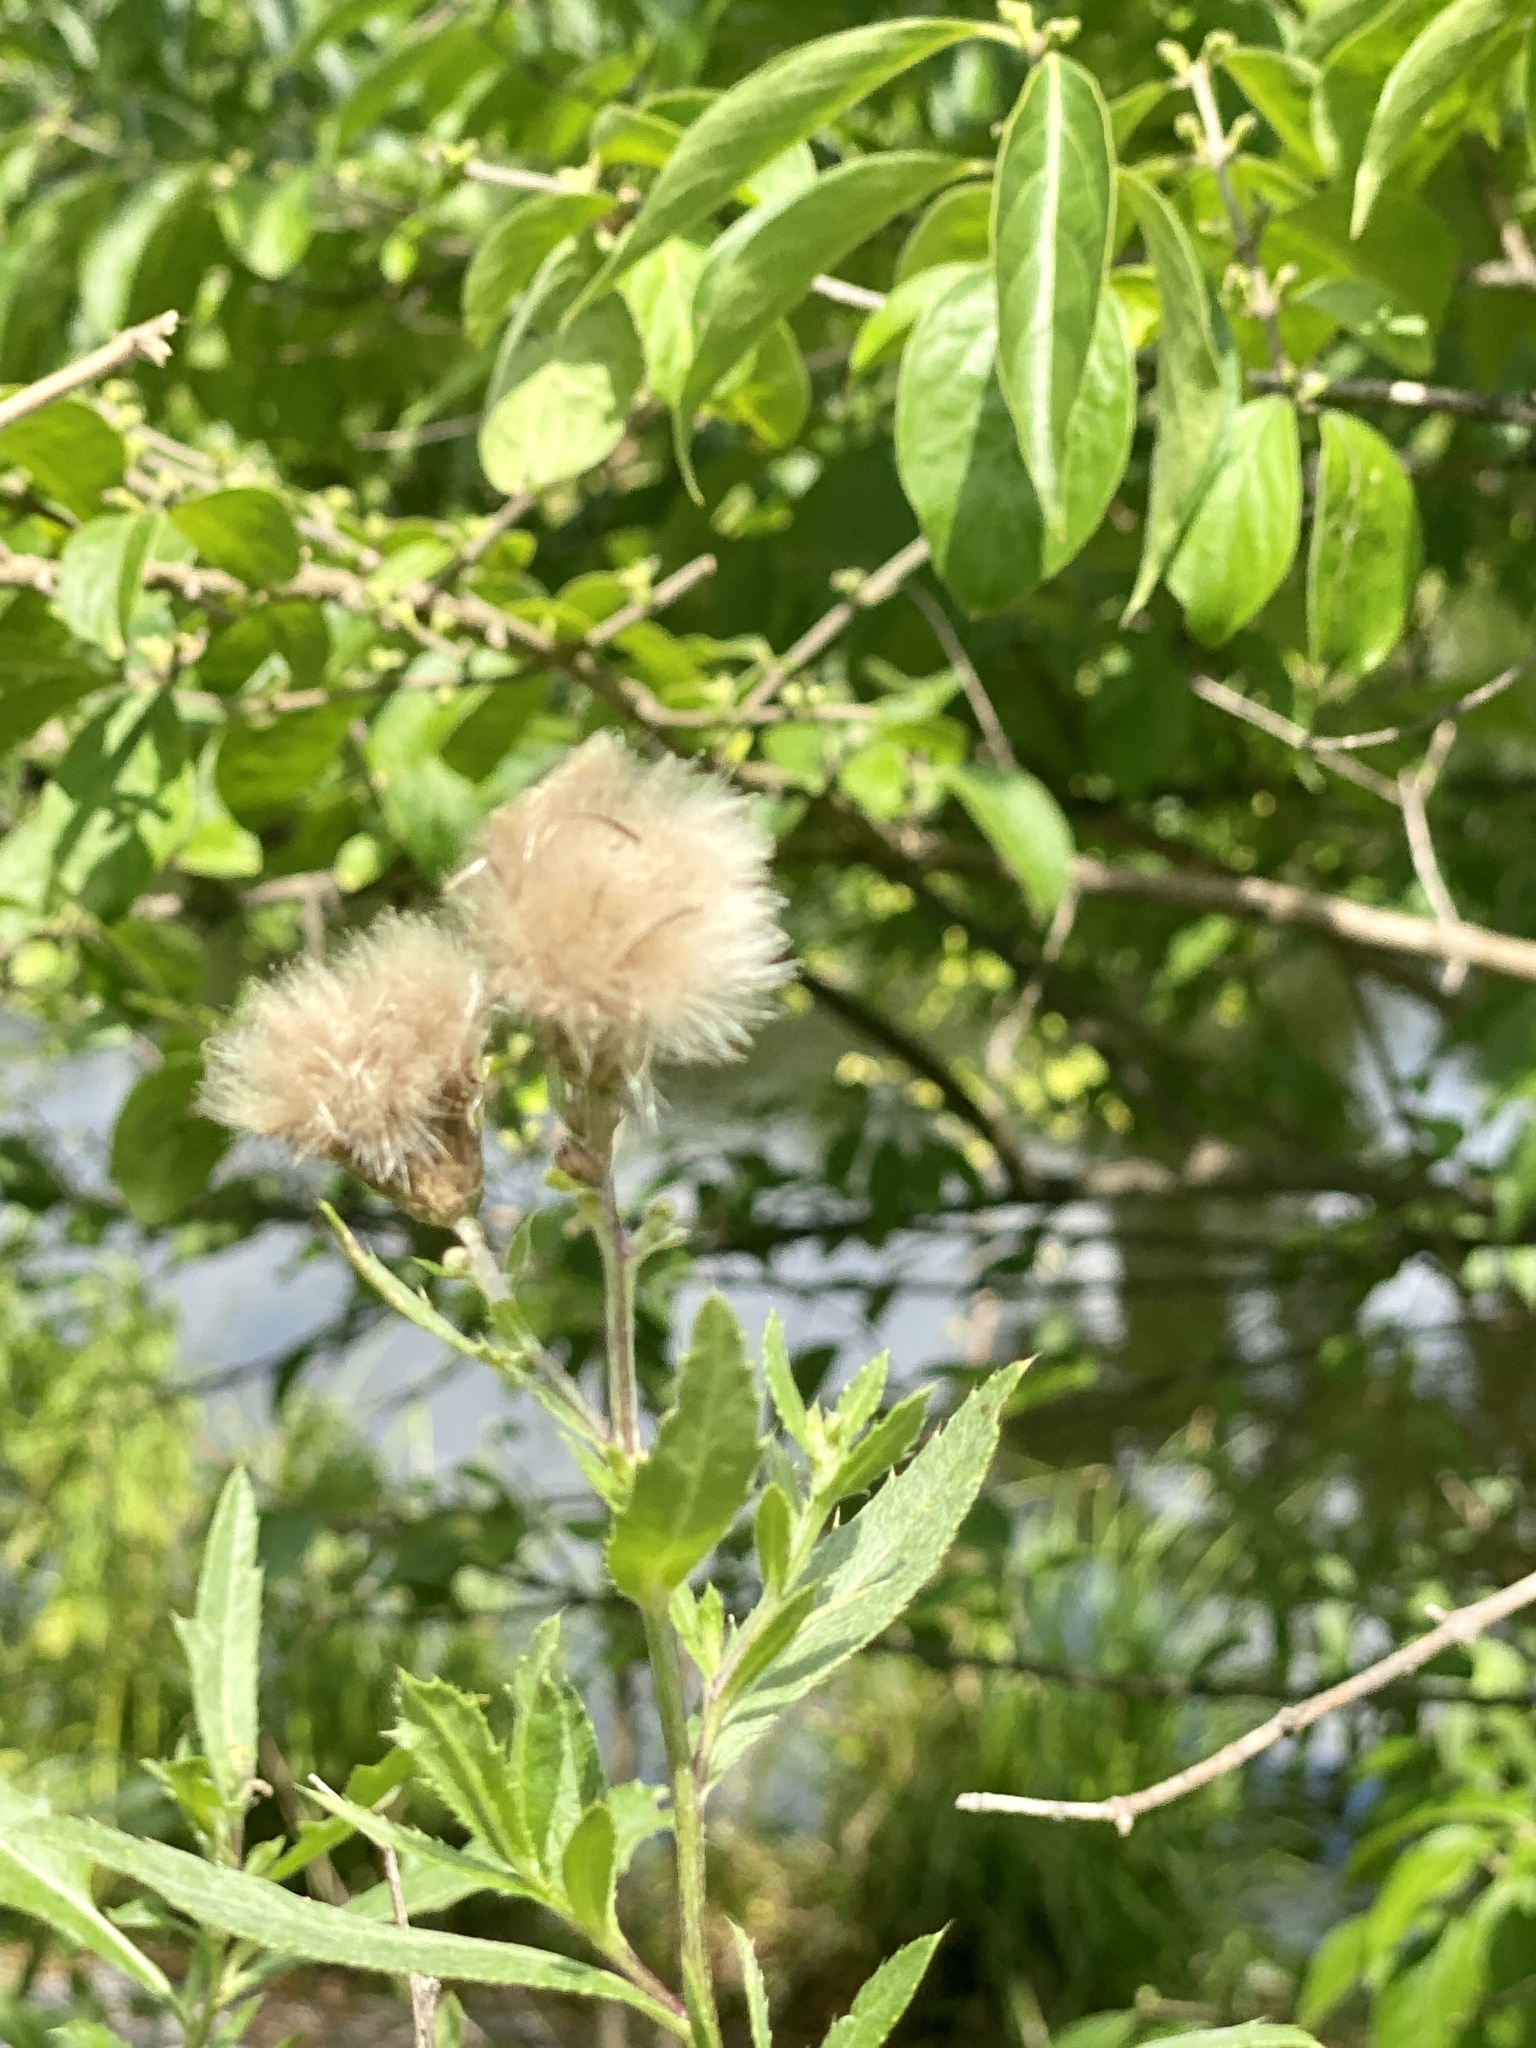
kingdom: Plantae
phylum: Tracheophyta
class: Magnoliopsida
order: Asterales
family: Asteraceae
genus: Cirsium
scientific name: Cirsium arvense
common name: Creeping thistle
